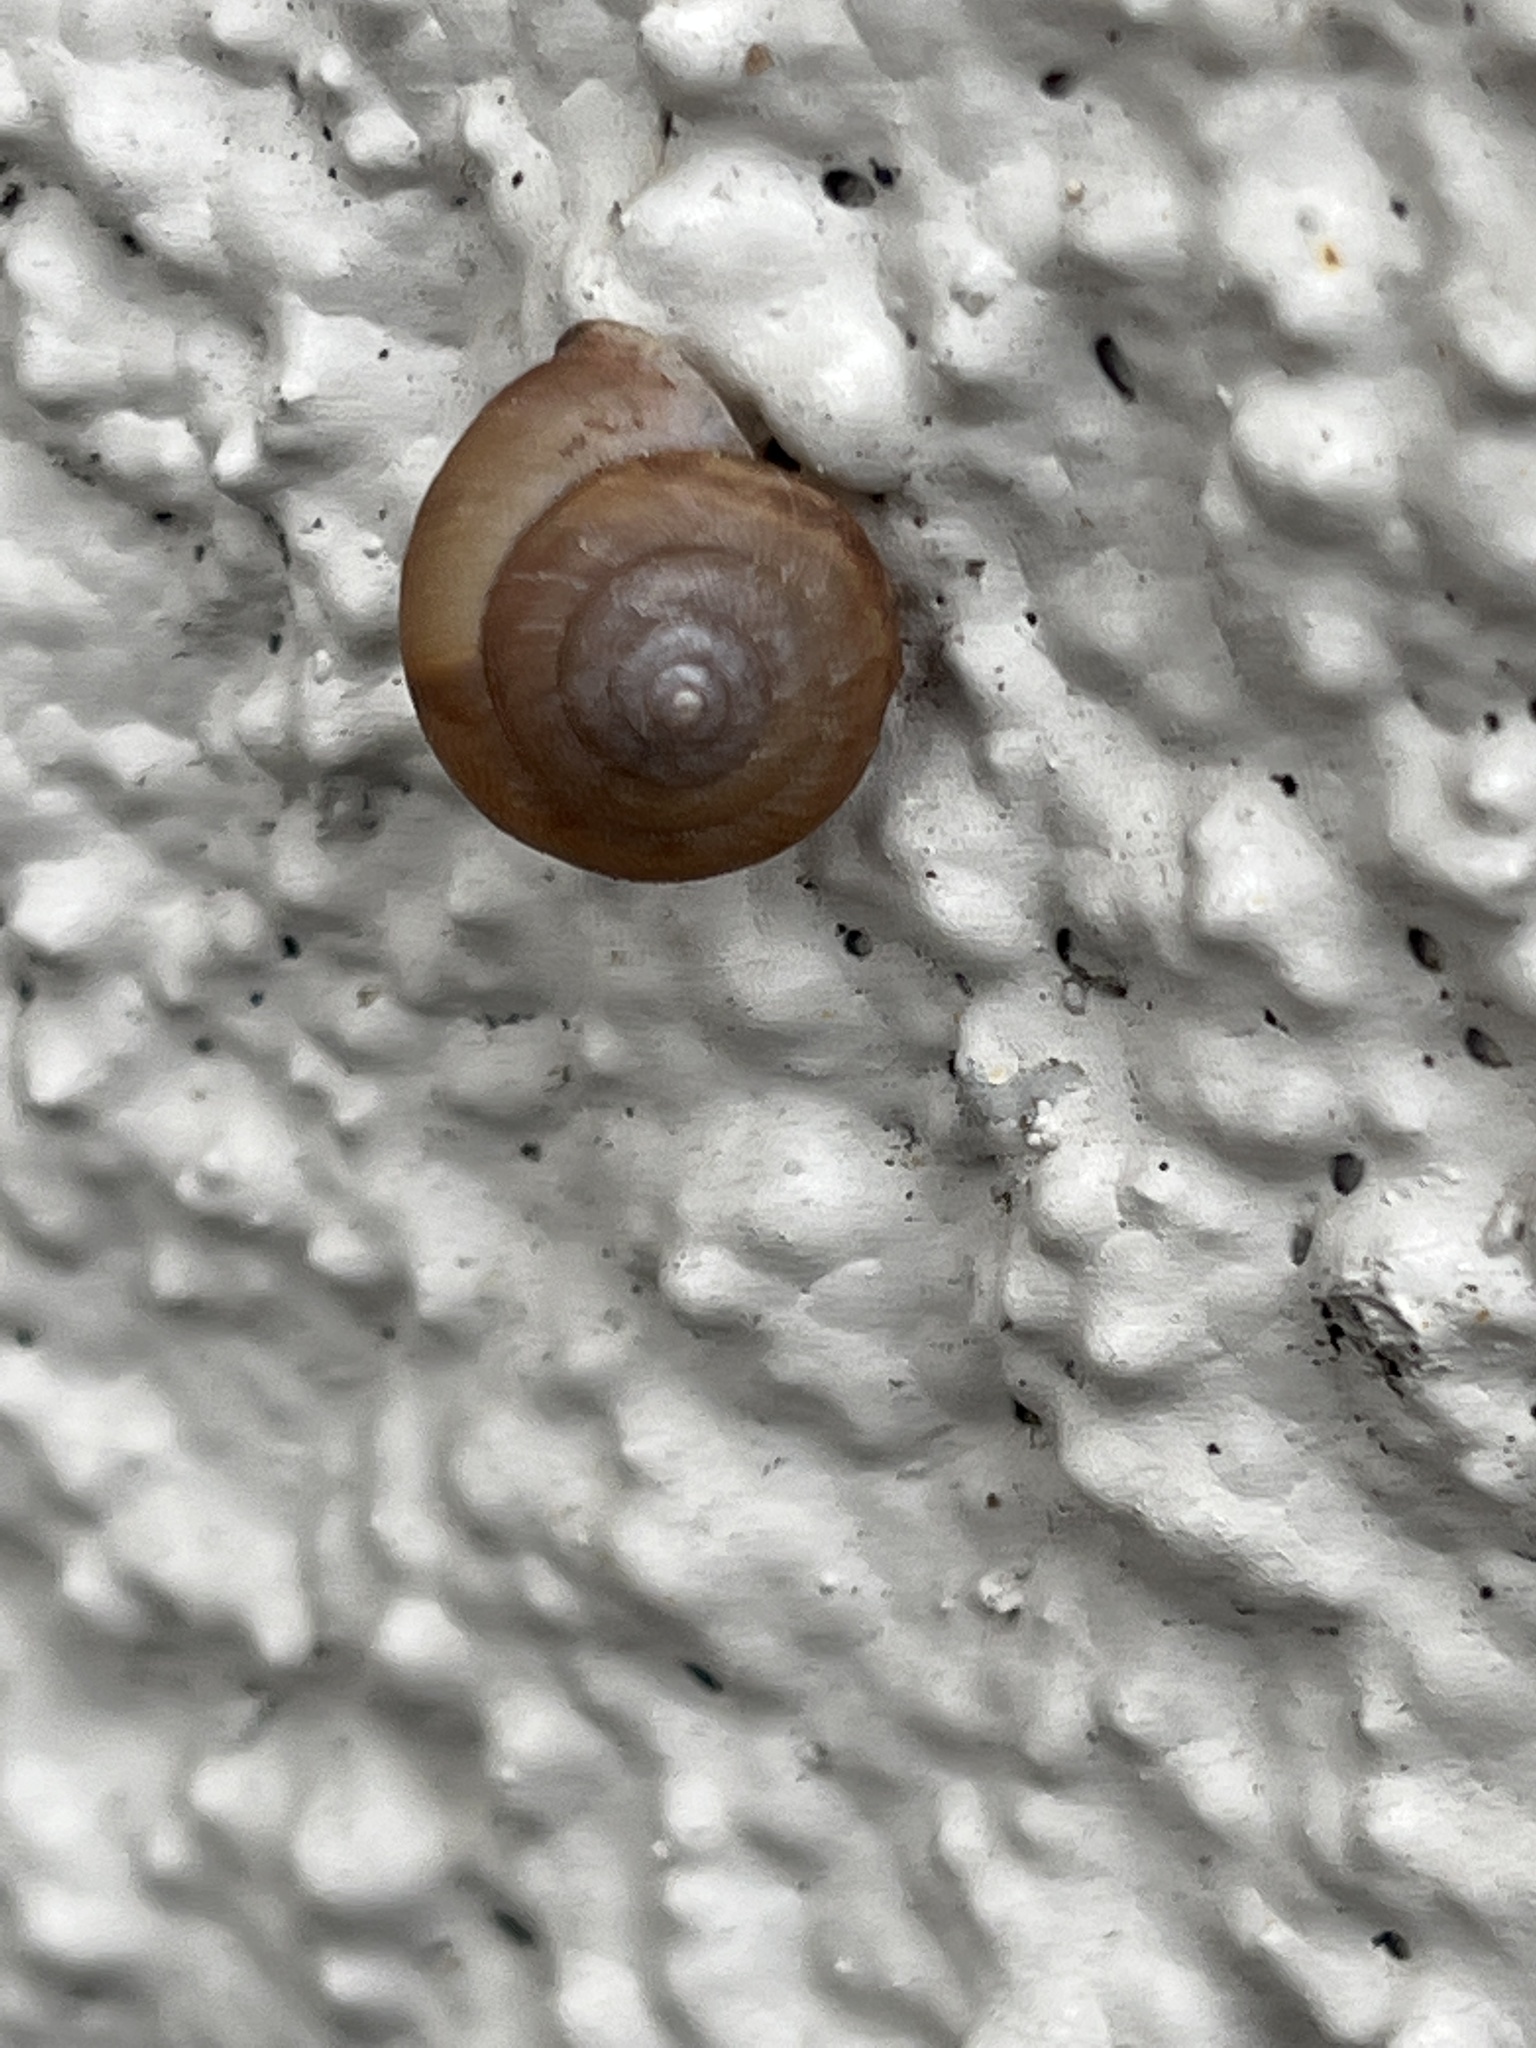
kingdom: Animalia
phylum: Mollusca
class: Gastropoda
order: Stylommatophora
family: Camaenidae
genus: Bradybaena
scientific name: Bradybaena similaris
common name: Asian trampsnail
